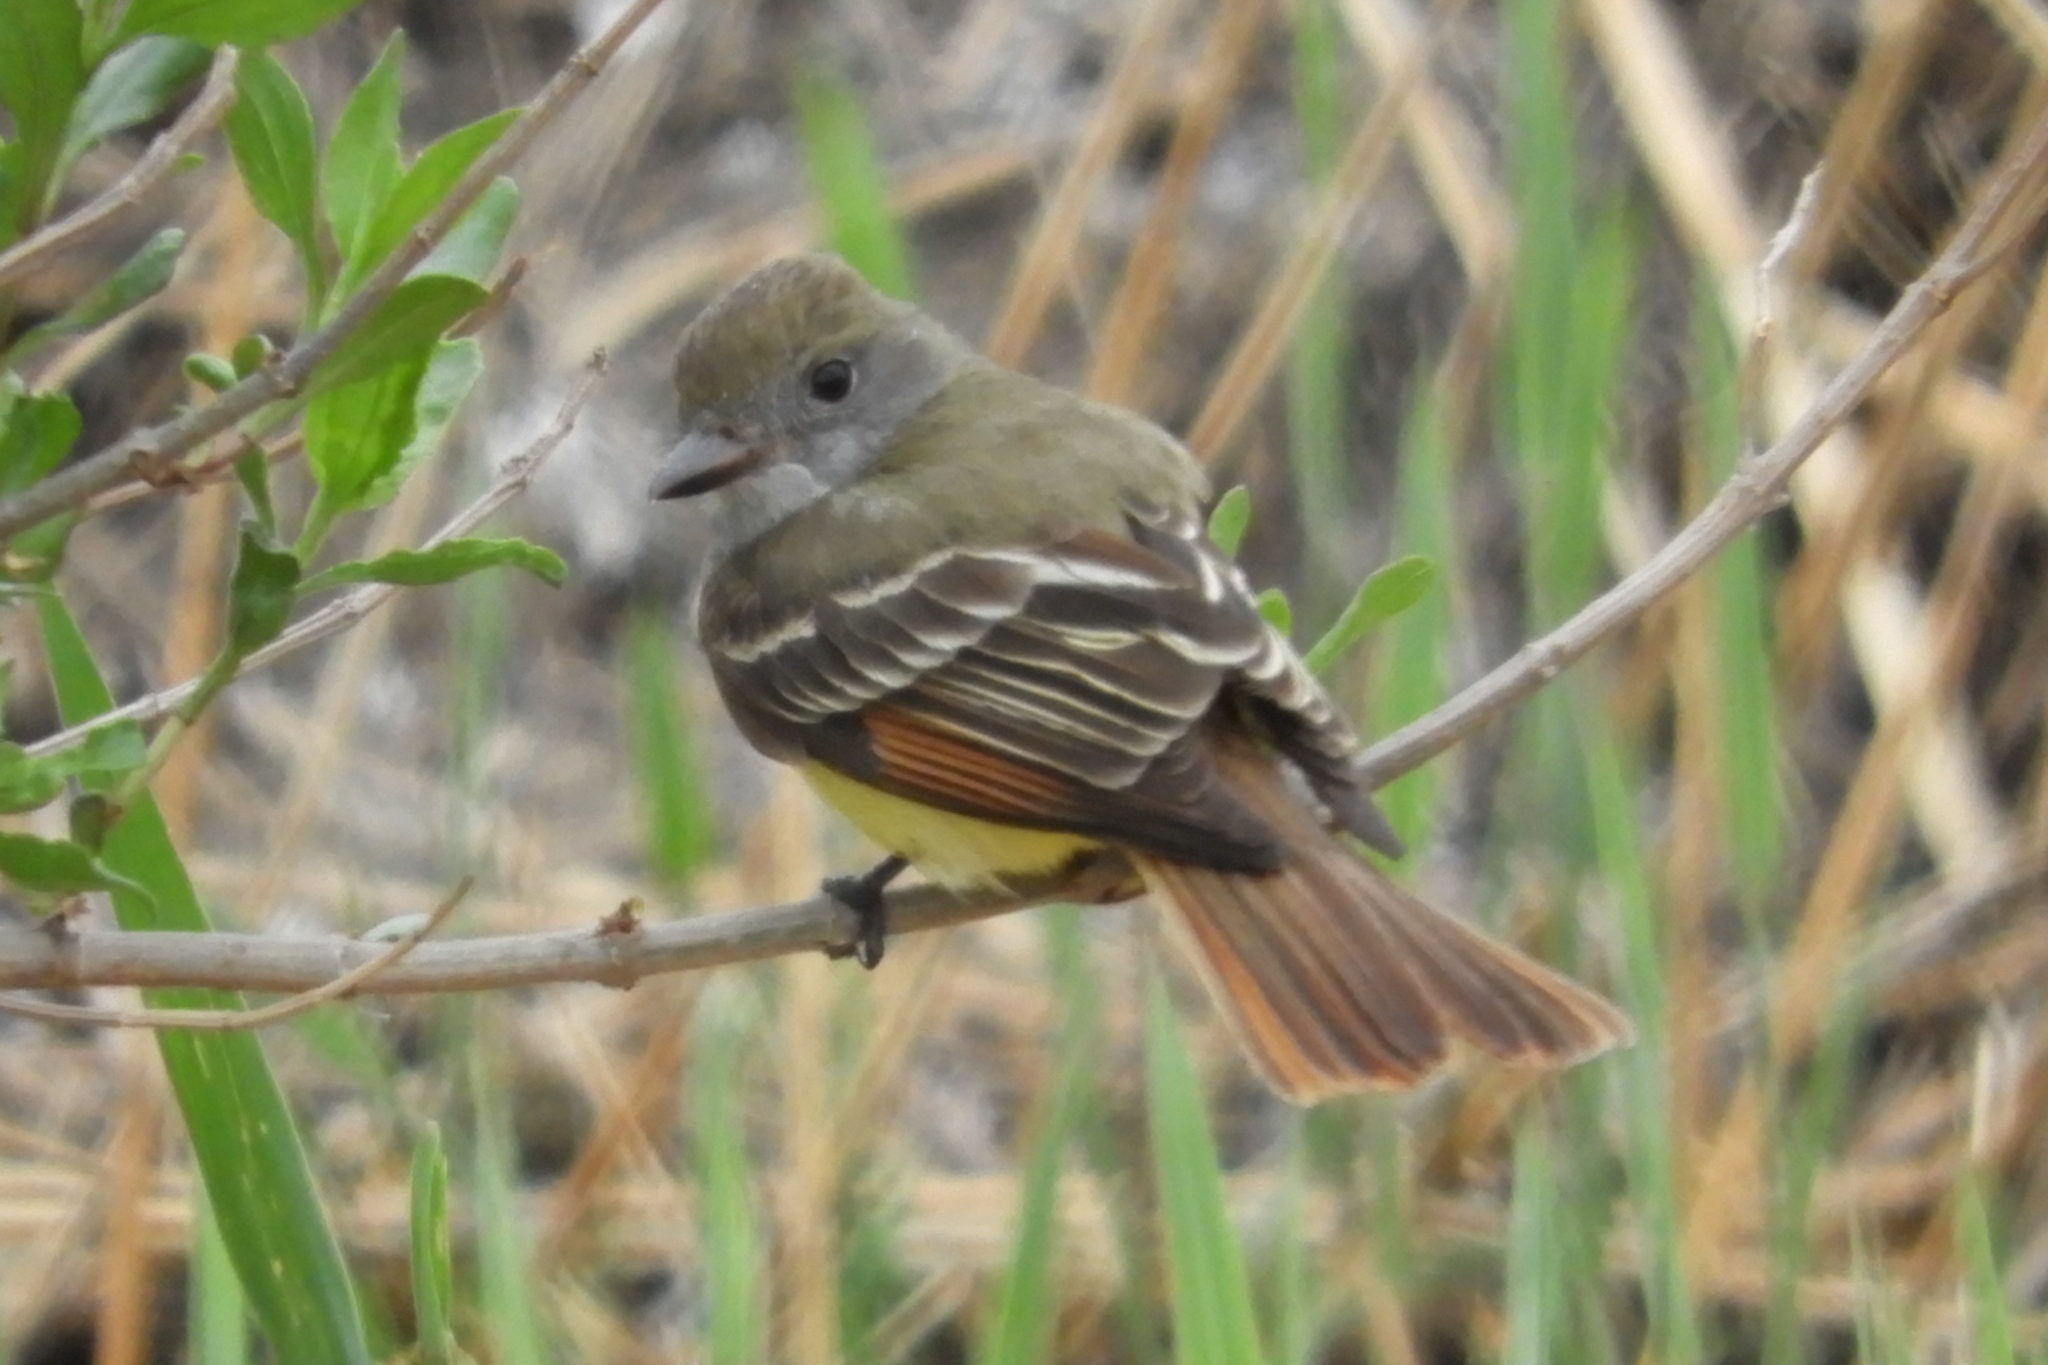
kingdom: Animalia
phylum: Chordata
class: Aves
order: Passeriformes
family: Tyrannidae
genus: Myiarchus
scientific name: Myiarchus crinitus
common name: Great crested flycatcher
